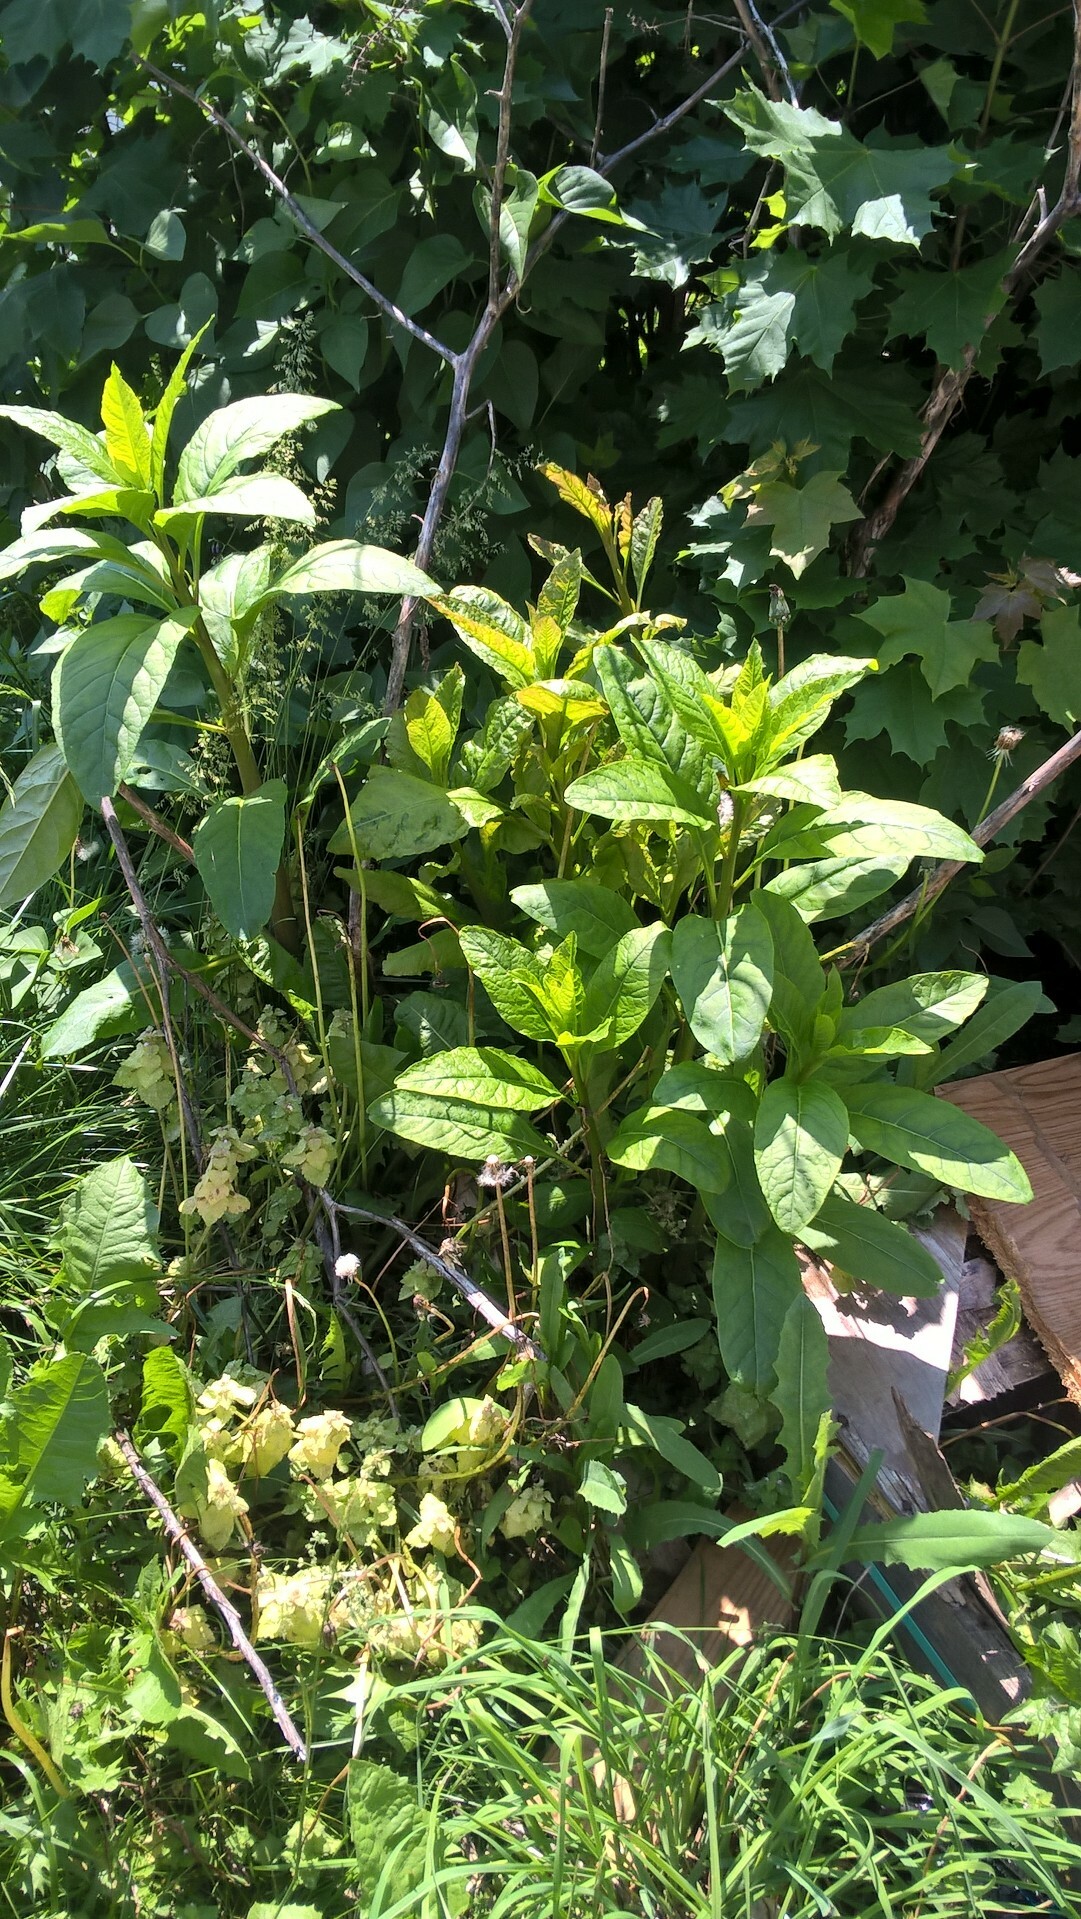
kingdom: Plantae
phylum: Tracheophyta
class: Magnoliopsida
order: Caryophyllales
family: Phytolaccaceae
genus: Phytolacca
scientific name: Phytolacca americana
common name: American pokeweed
